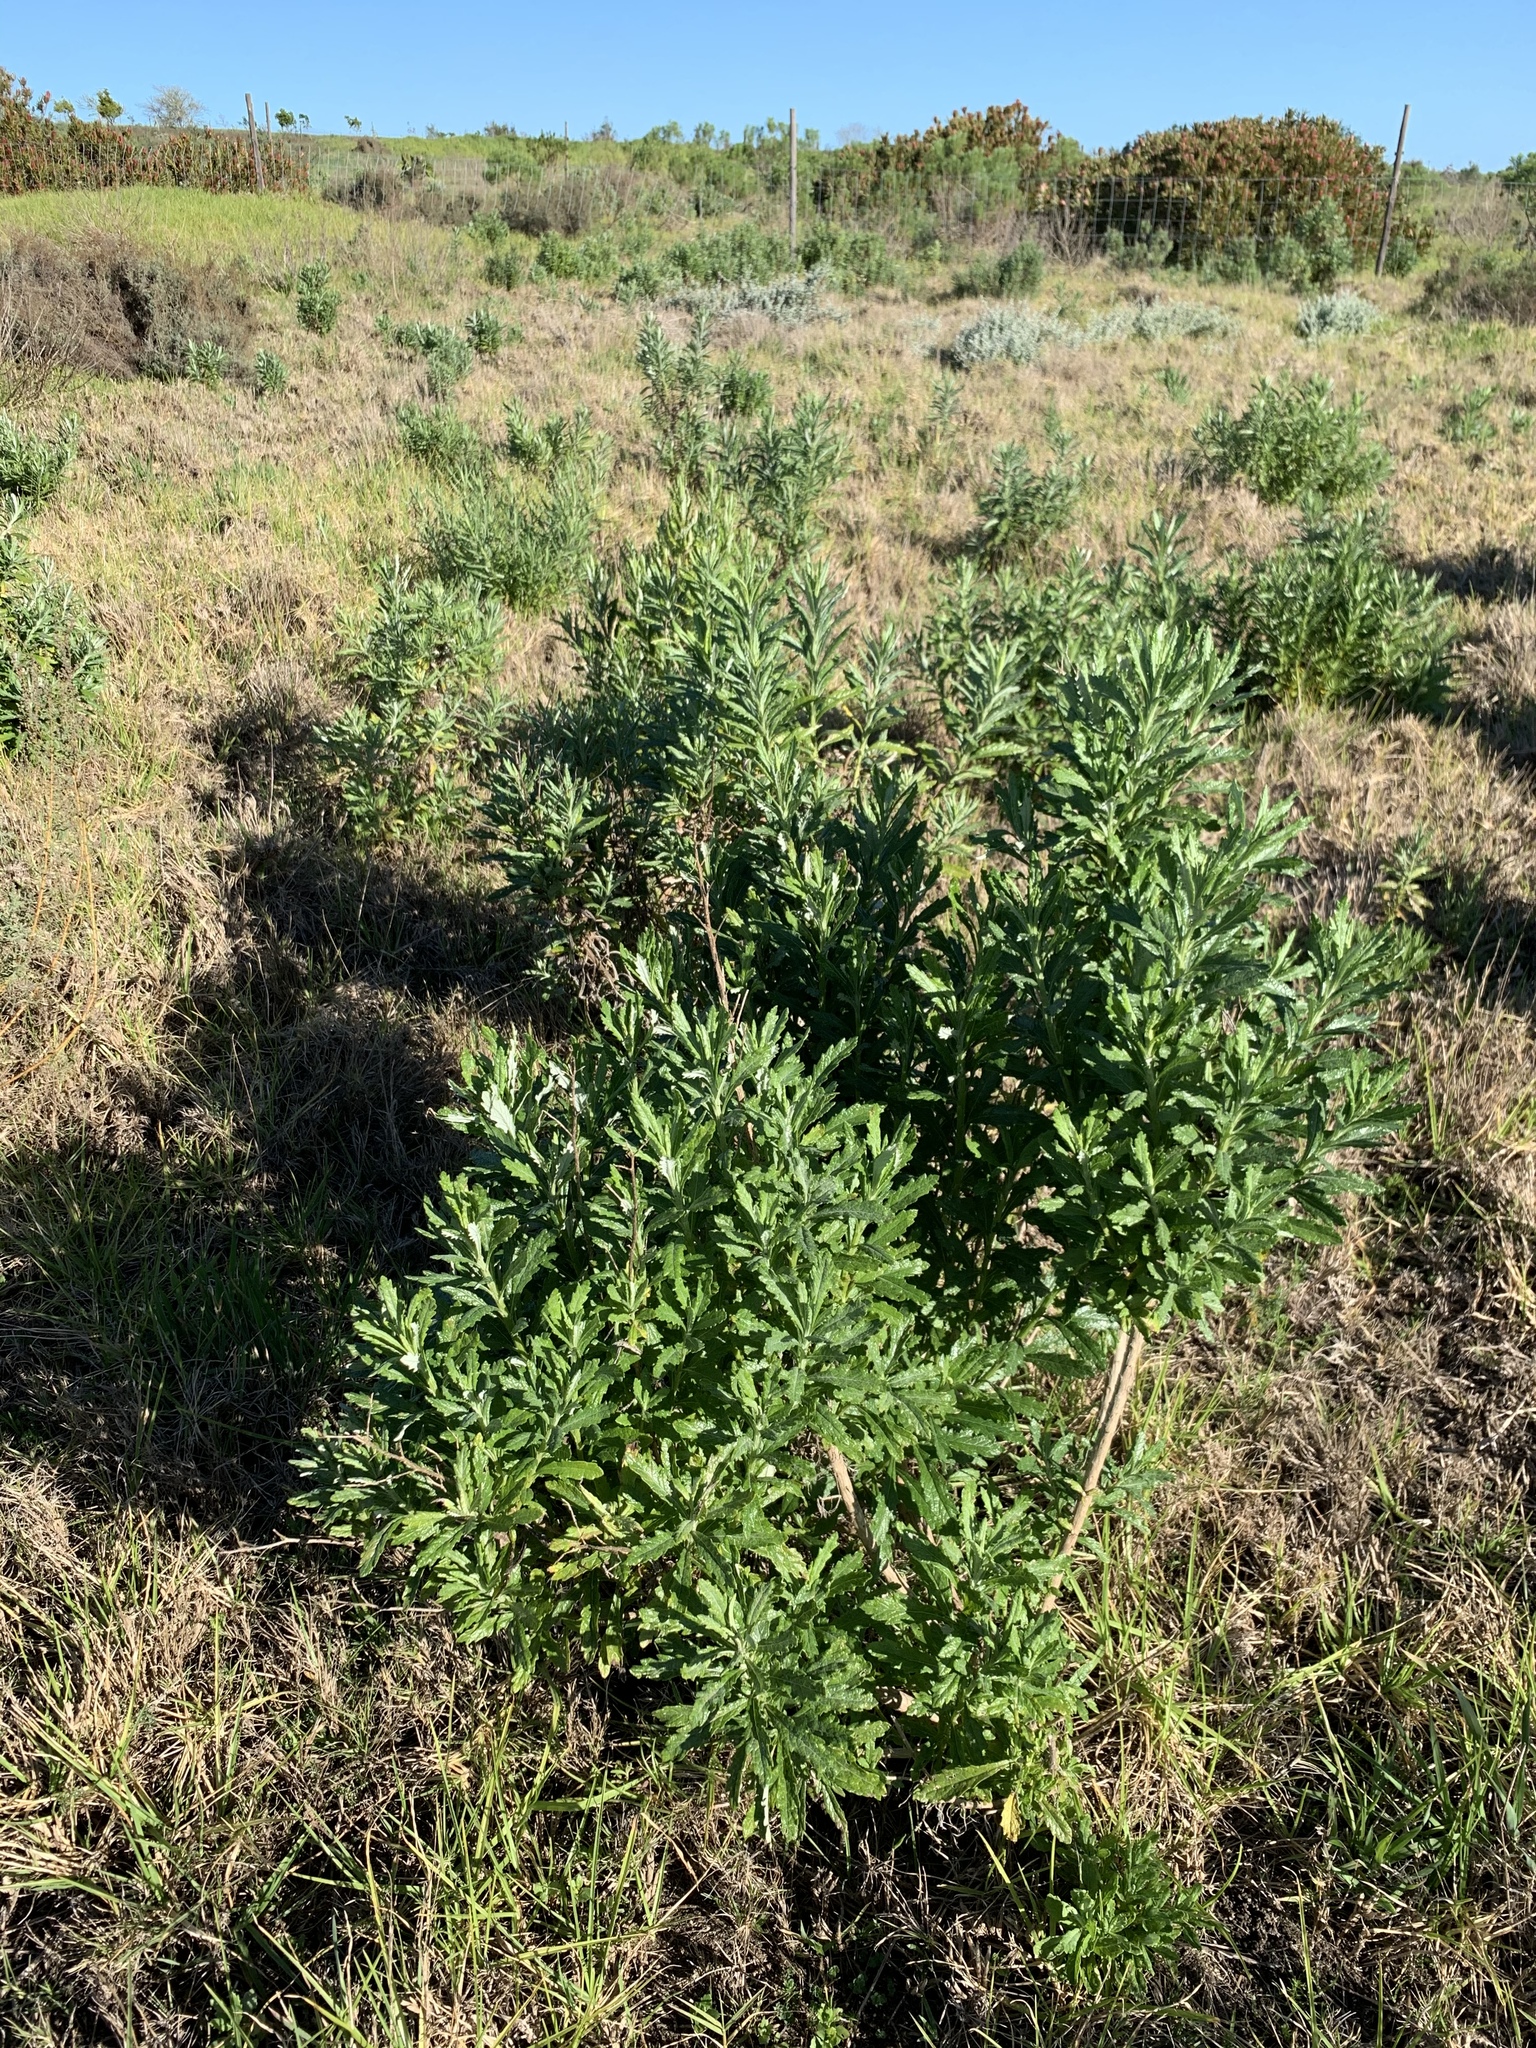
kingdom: Plantae
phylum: Tracheophyta
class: Magnoliopsida
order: Asterales
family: Asteraceae
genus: Senecio
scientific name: Senecio pterophorus
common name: Shoddy ragwort
